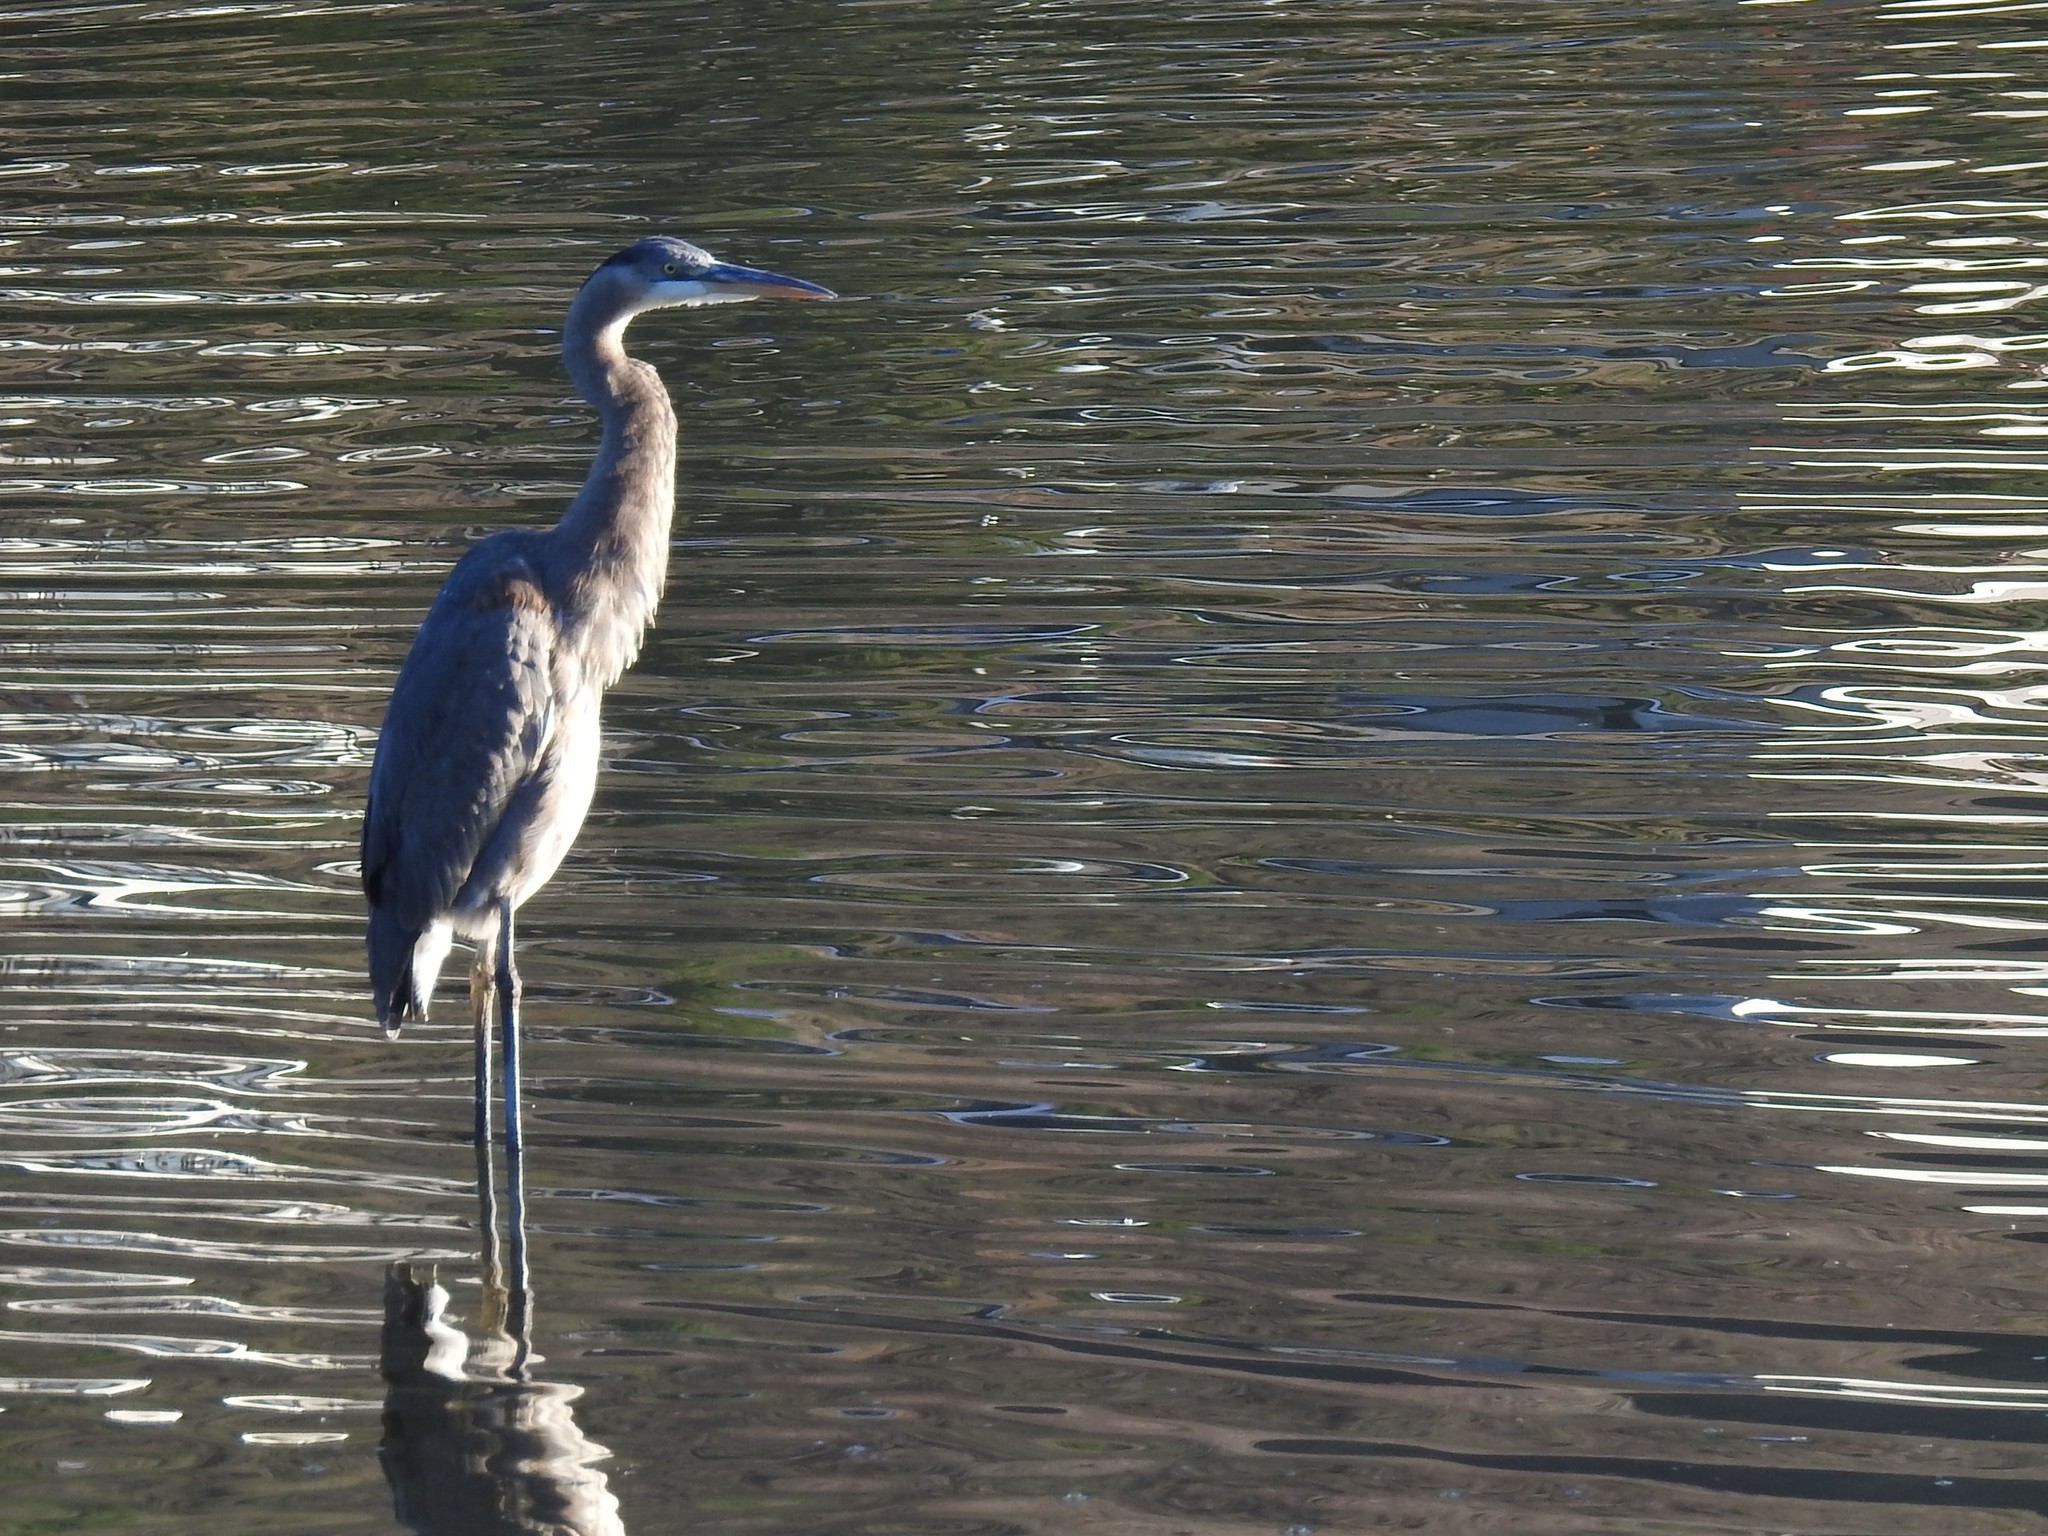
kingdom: Animalia
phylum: Chordata
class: Aves
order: Pelecaniformes
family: Ardeidae
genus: Ardea
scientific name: Ardea herodias
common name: Great blue heron
